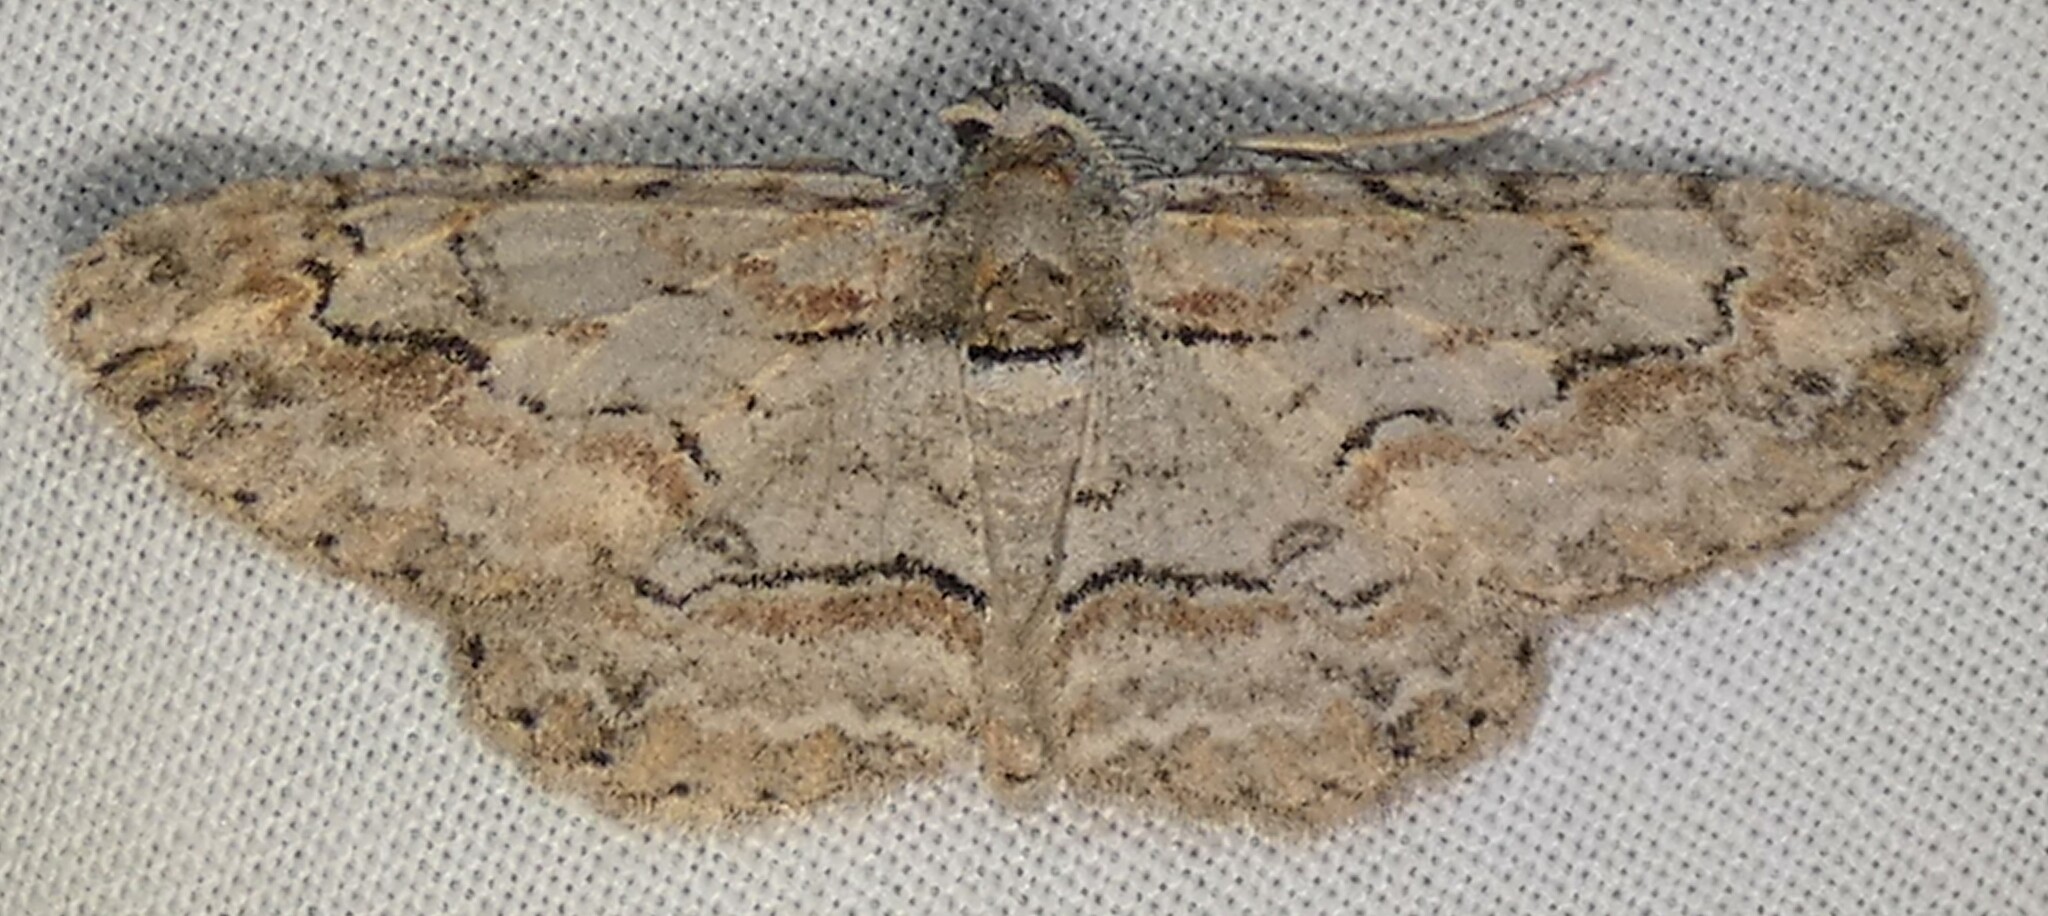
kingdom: Animalia
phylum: Arthropoda
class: Insecta
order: Lepidoptera
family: Geometridae
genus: Iridopsis
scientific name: Iridopsis defectaria
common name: Brown-shaded gray
